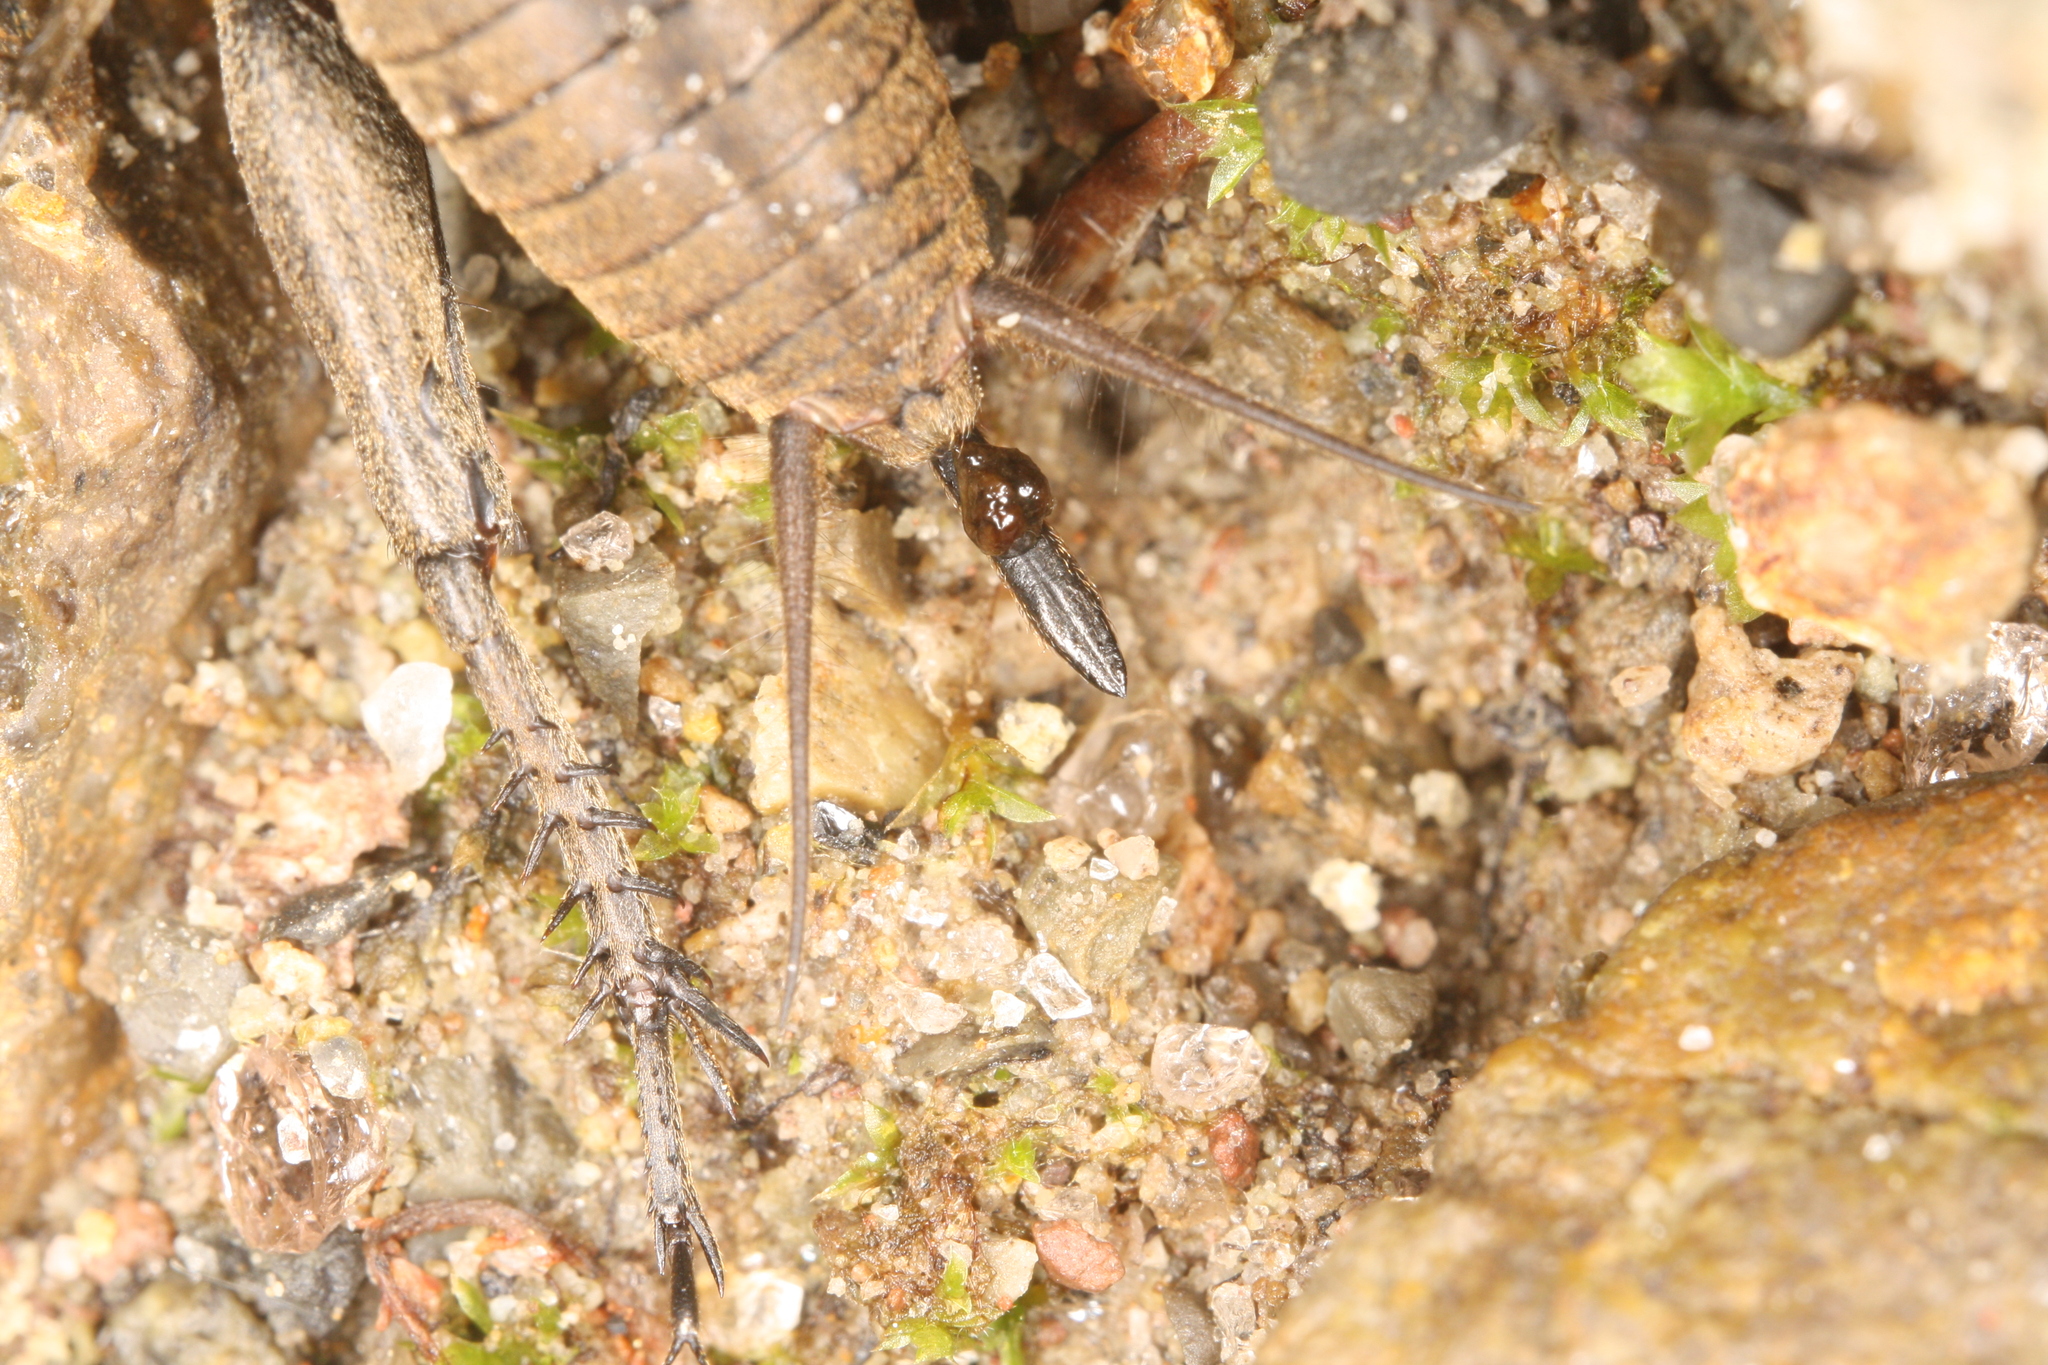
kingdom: Animalia
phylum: Arthropoda
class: Insecta
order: Orthoptera
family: Gryllidae
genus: Melanogryllus
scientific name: Melanogryllus desertus
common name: Desert cricket
